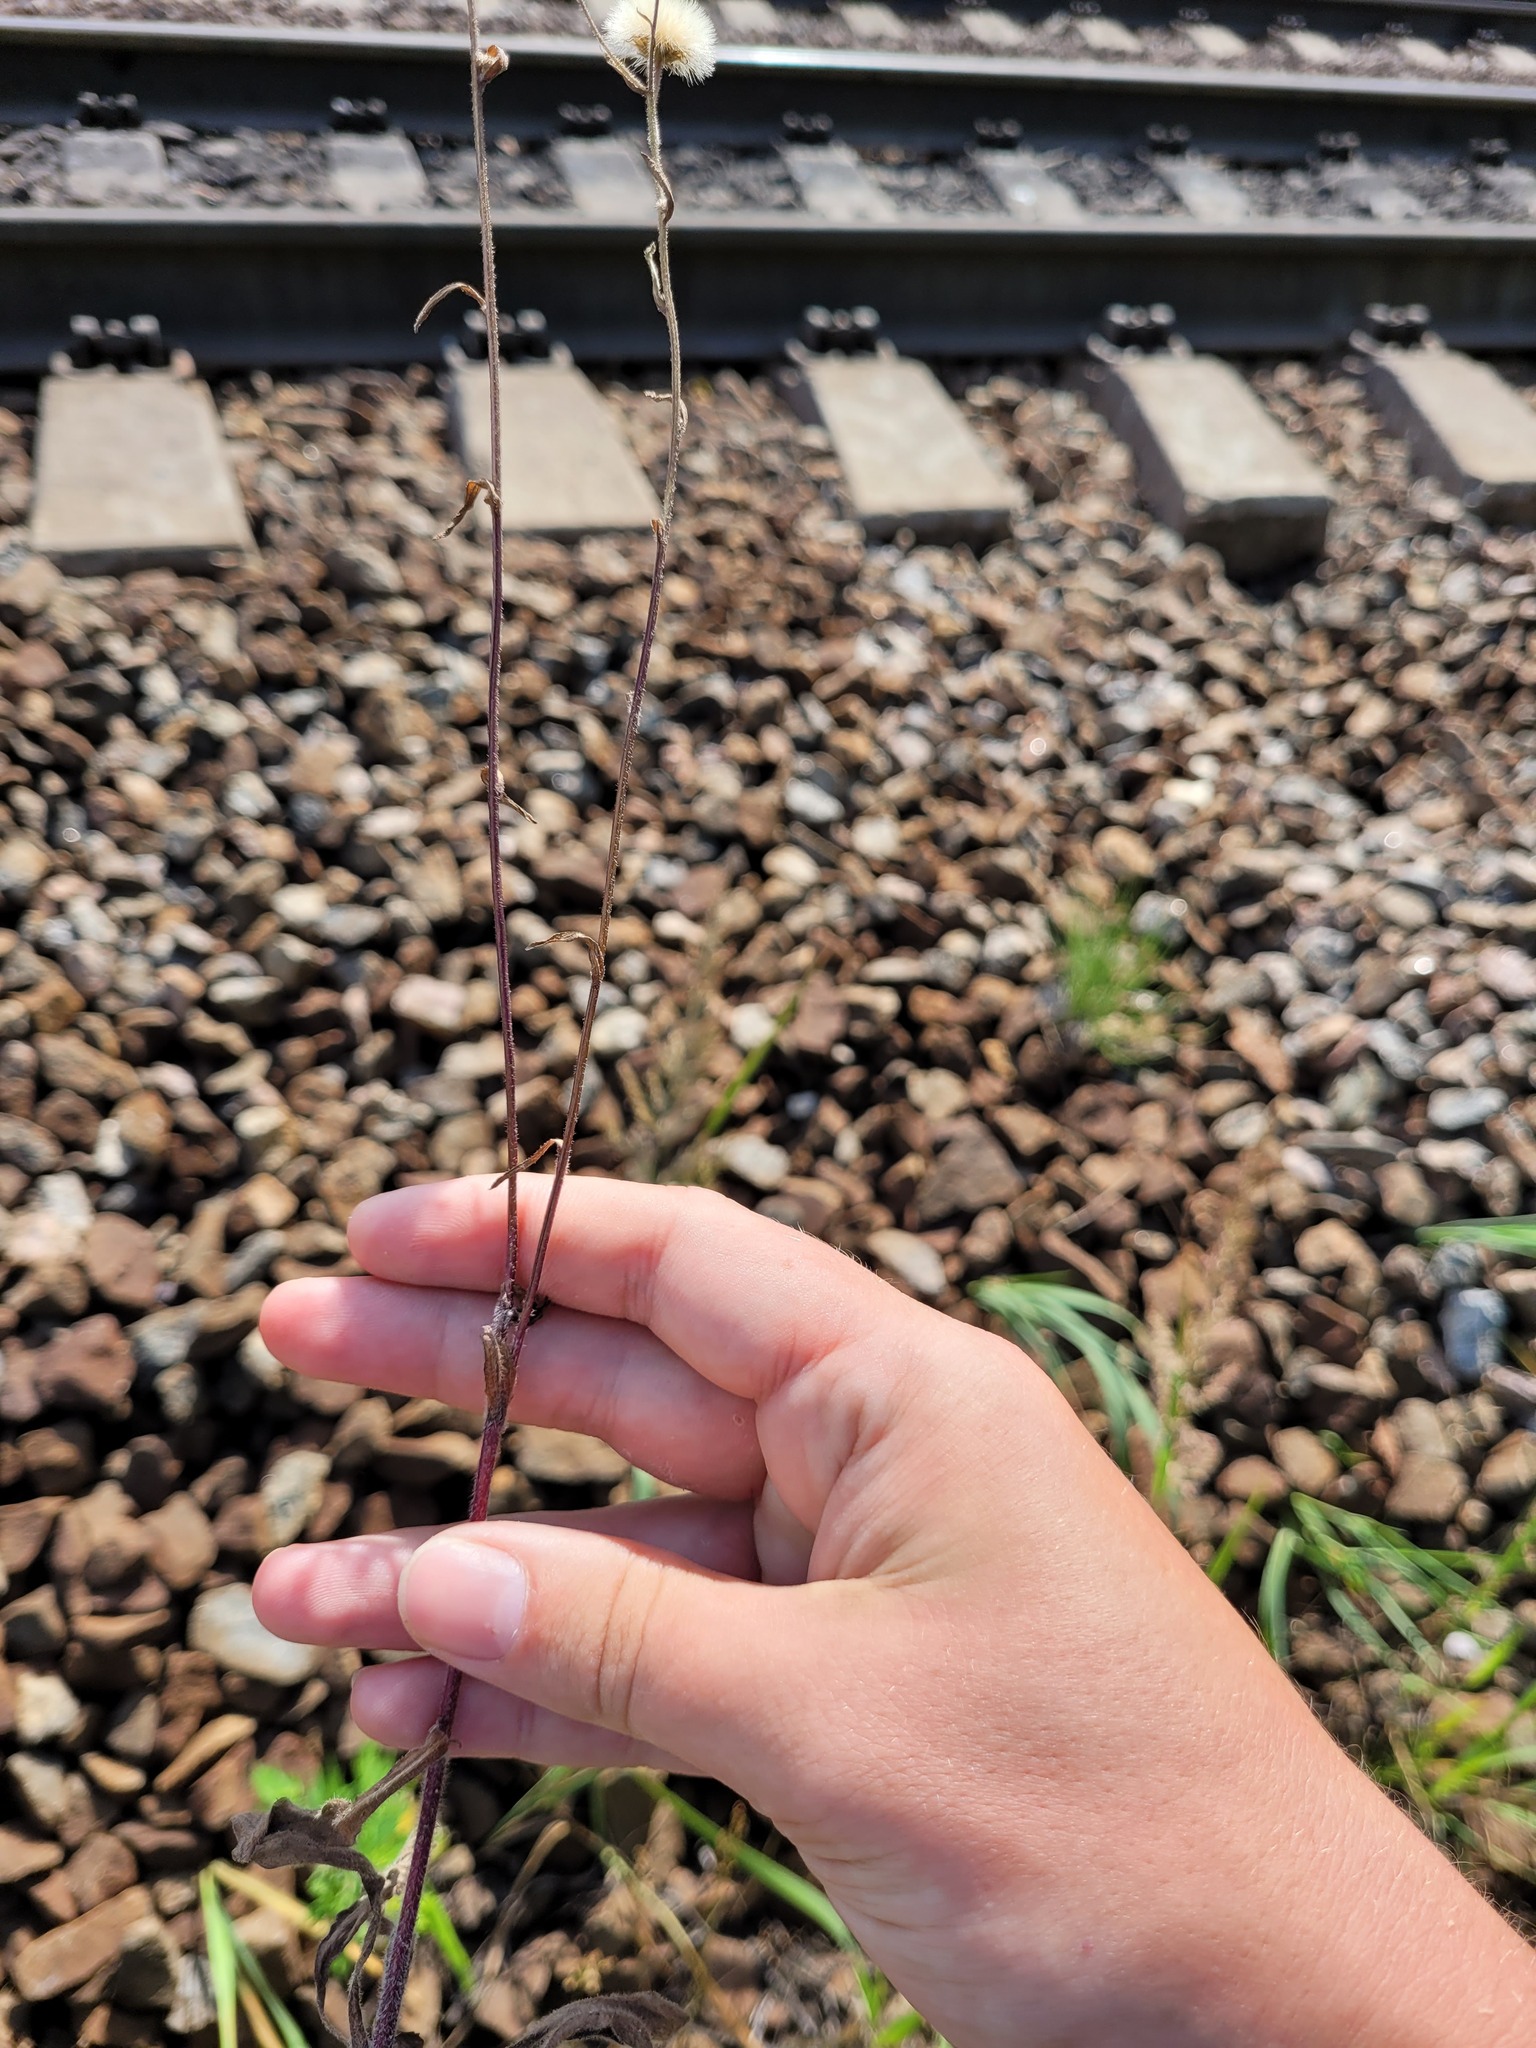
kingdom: Plantae
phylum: Tracheophyta
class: Magnoliopsida
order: Asterales
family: Asteraceae
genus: Erigeron
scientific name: Erigeron acris
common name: Blue fleabane
